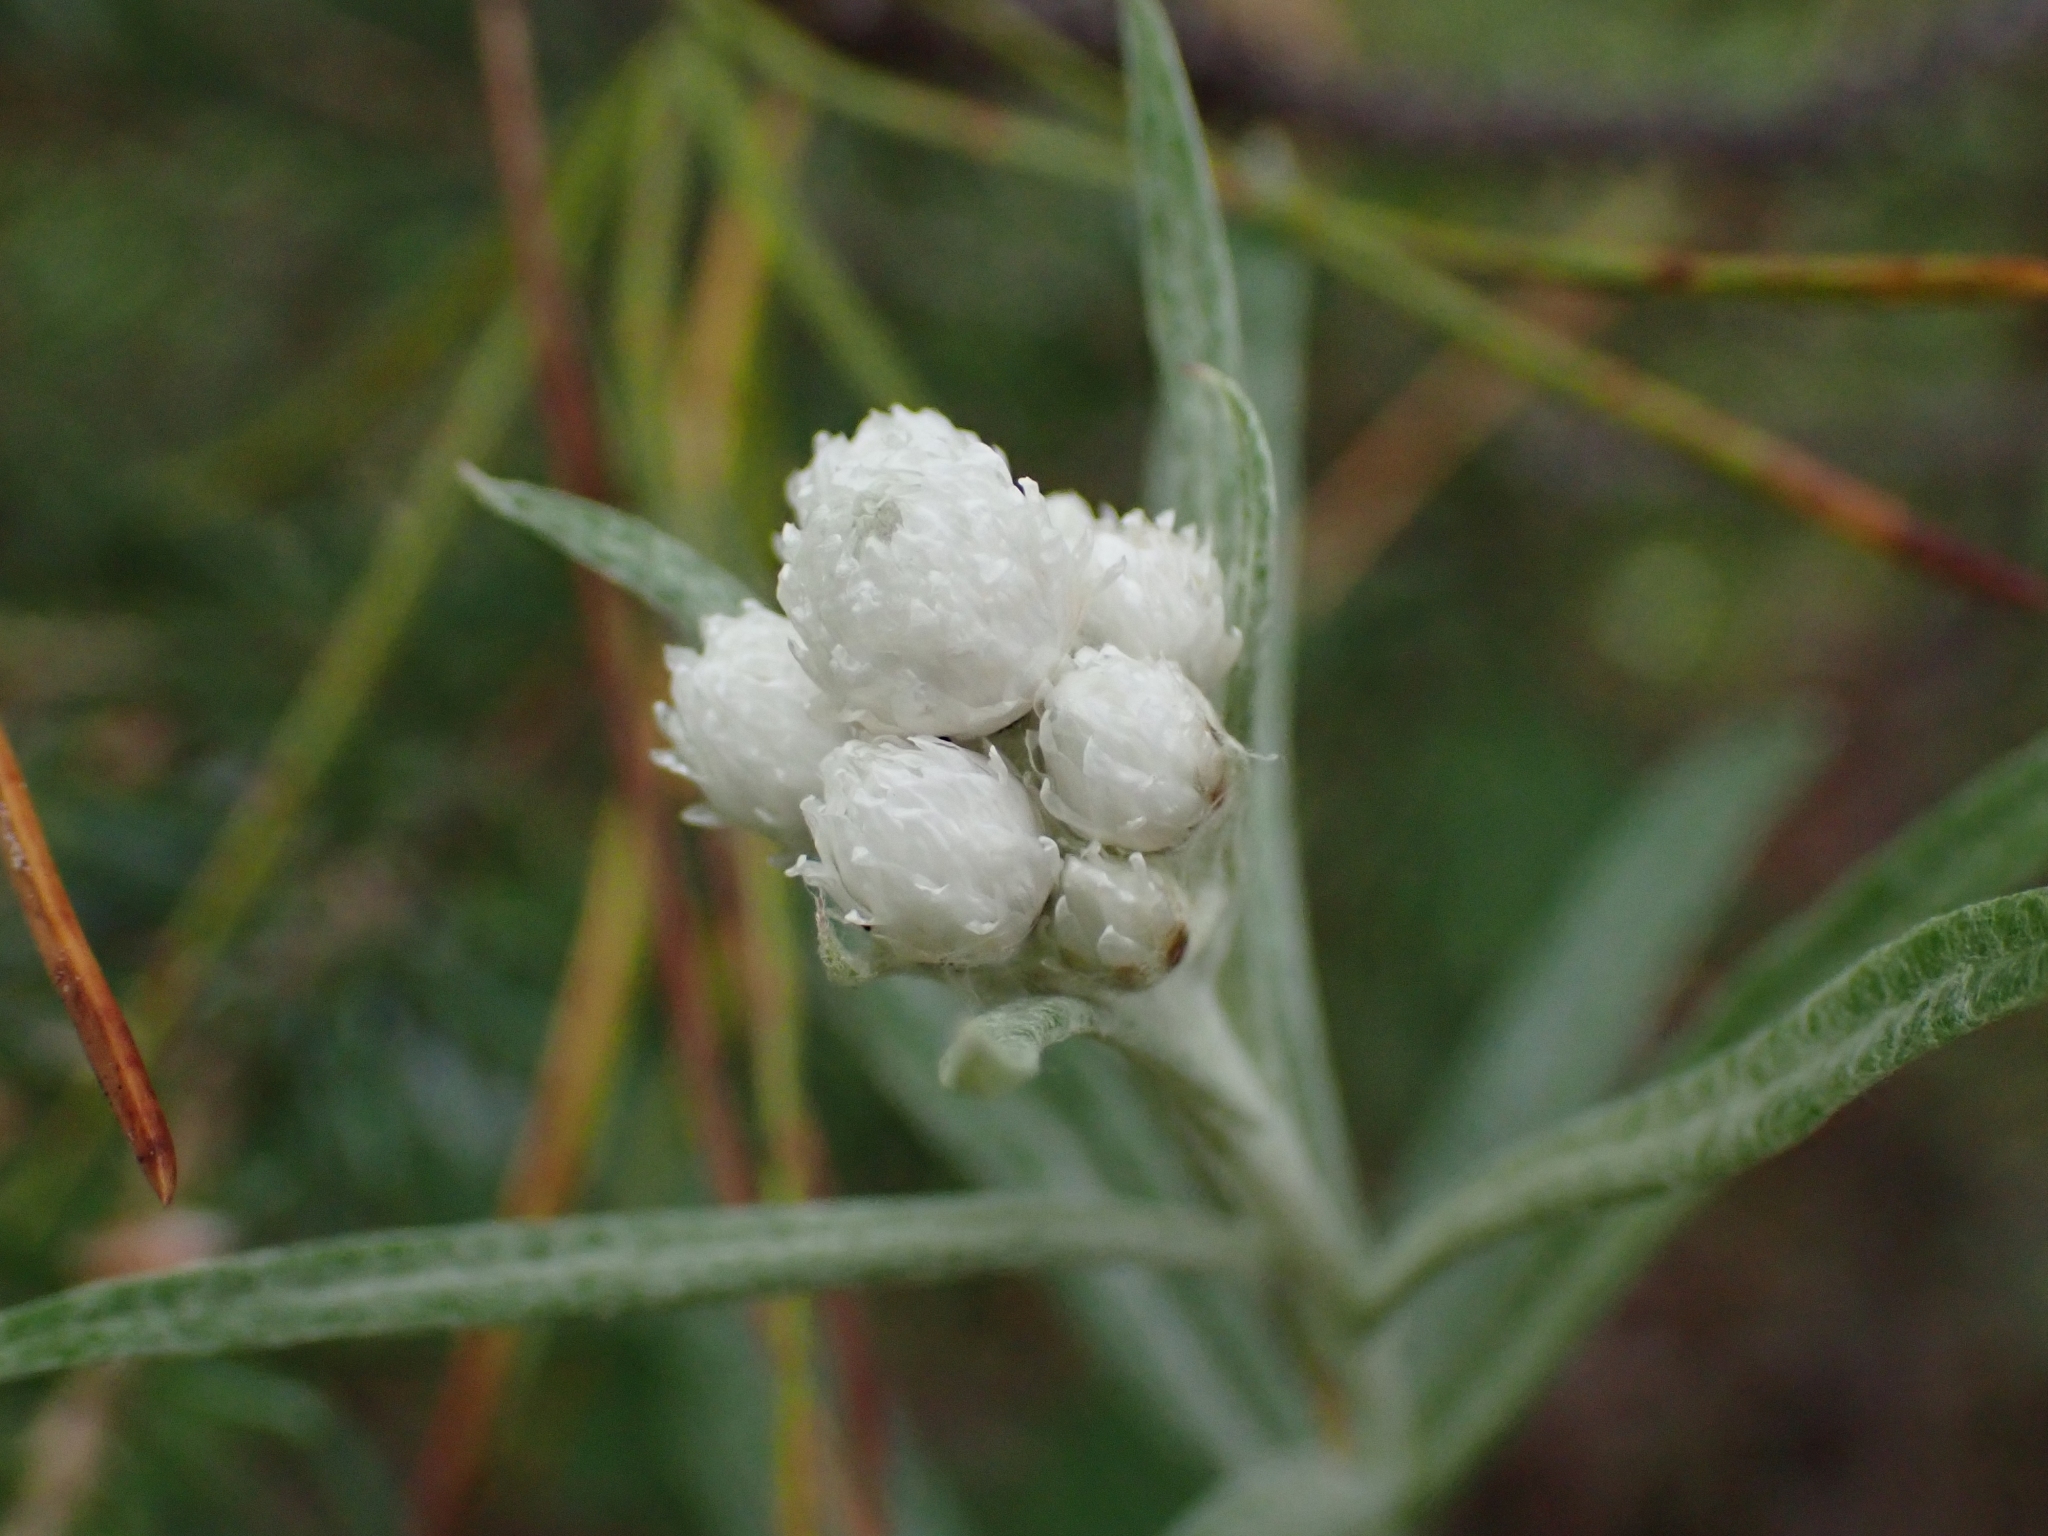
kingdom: Plantae
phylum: Tracheophyta
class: Magnoliopsida
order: Asterales
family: Asteraceae
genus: Anaphalis
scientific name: Anaphalis margaritacea
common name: Pearly everlasting
